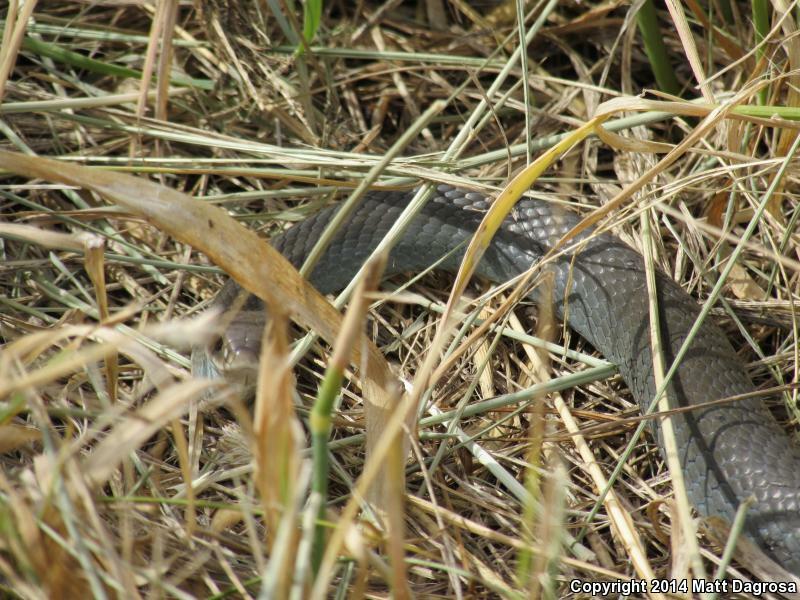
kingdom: Animalia
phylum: Chordata
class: Squamata
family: Colubridae
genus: Coluber
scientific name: Coluber constrictor
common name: Eastern racer
